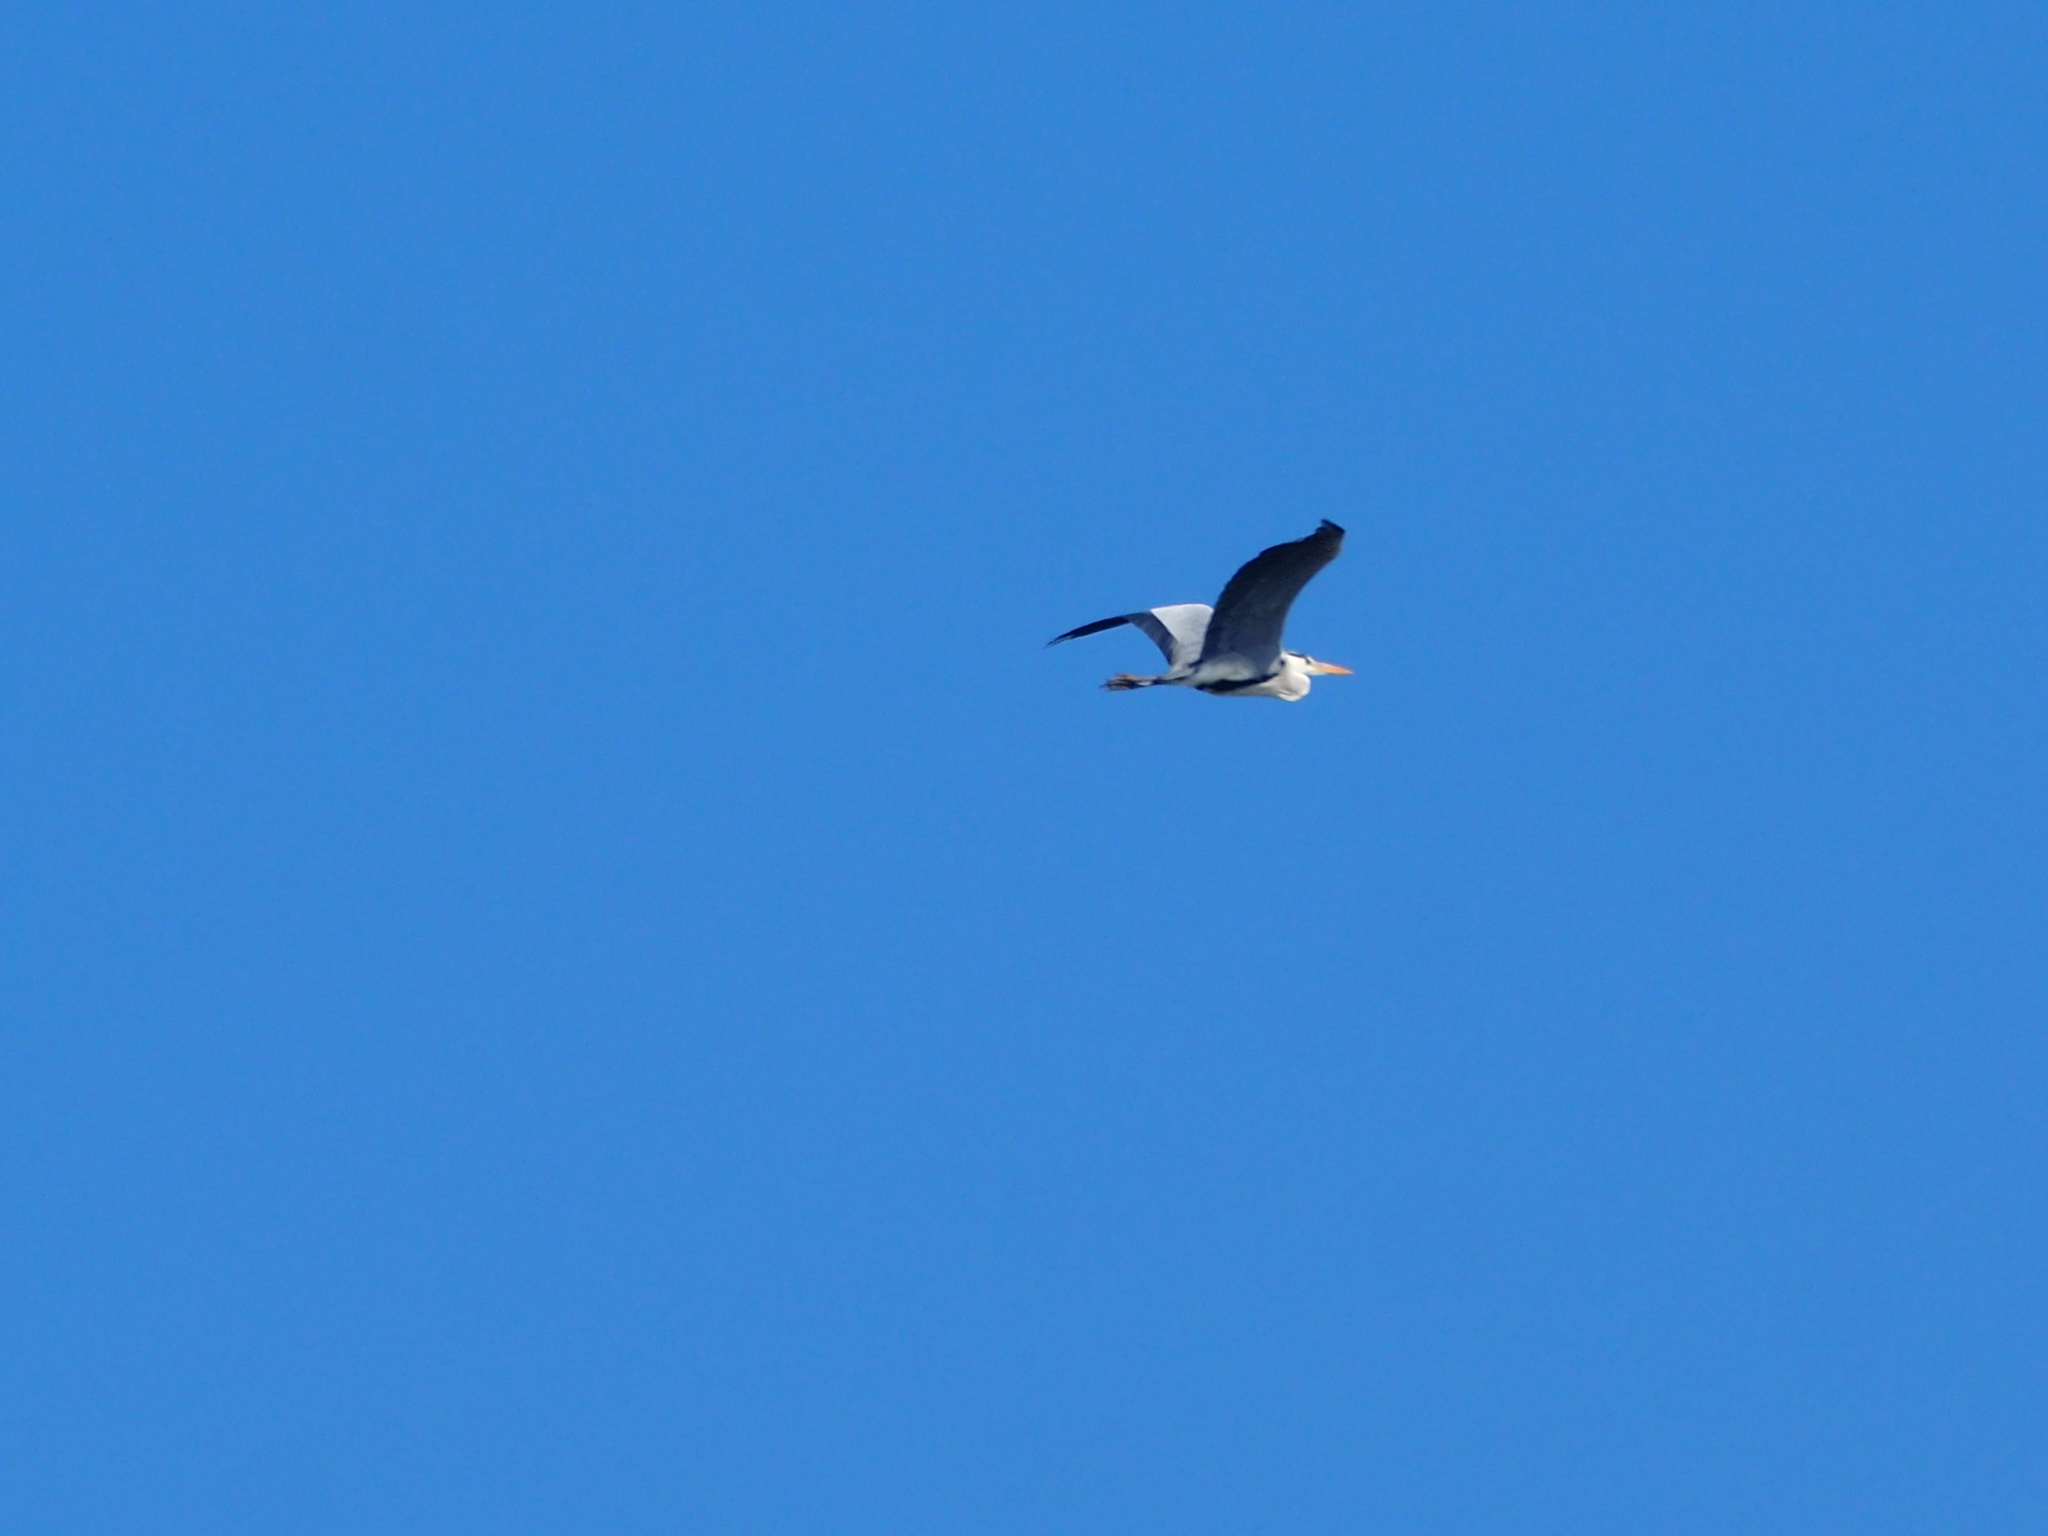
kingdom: Animalia
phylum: Chordata
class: Aves
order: Pelecaniformes
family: Ardeidae
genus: Ardea
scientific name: Ardea cinerea
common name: Grey heron
